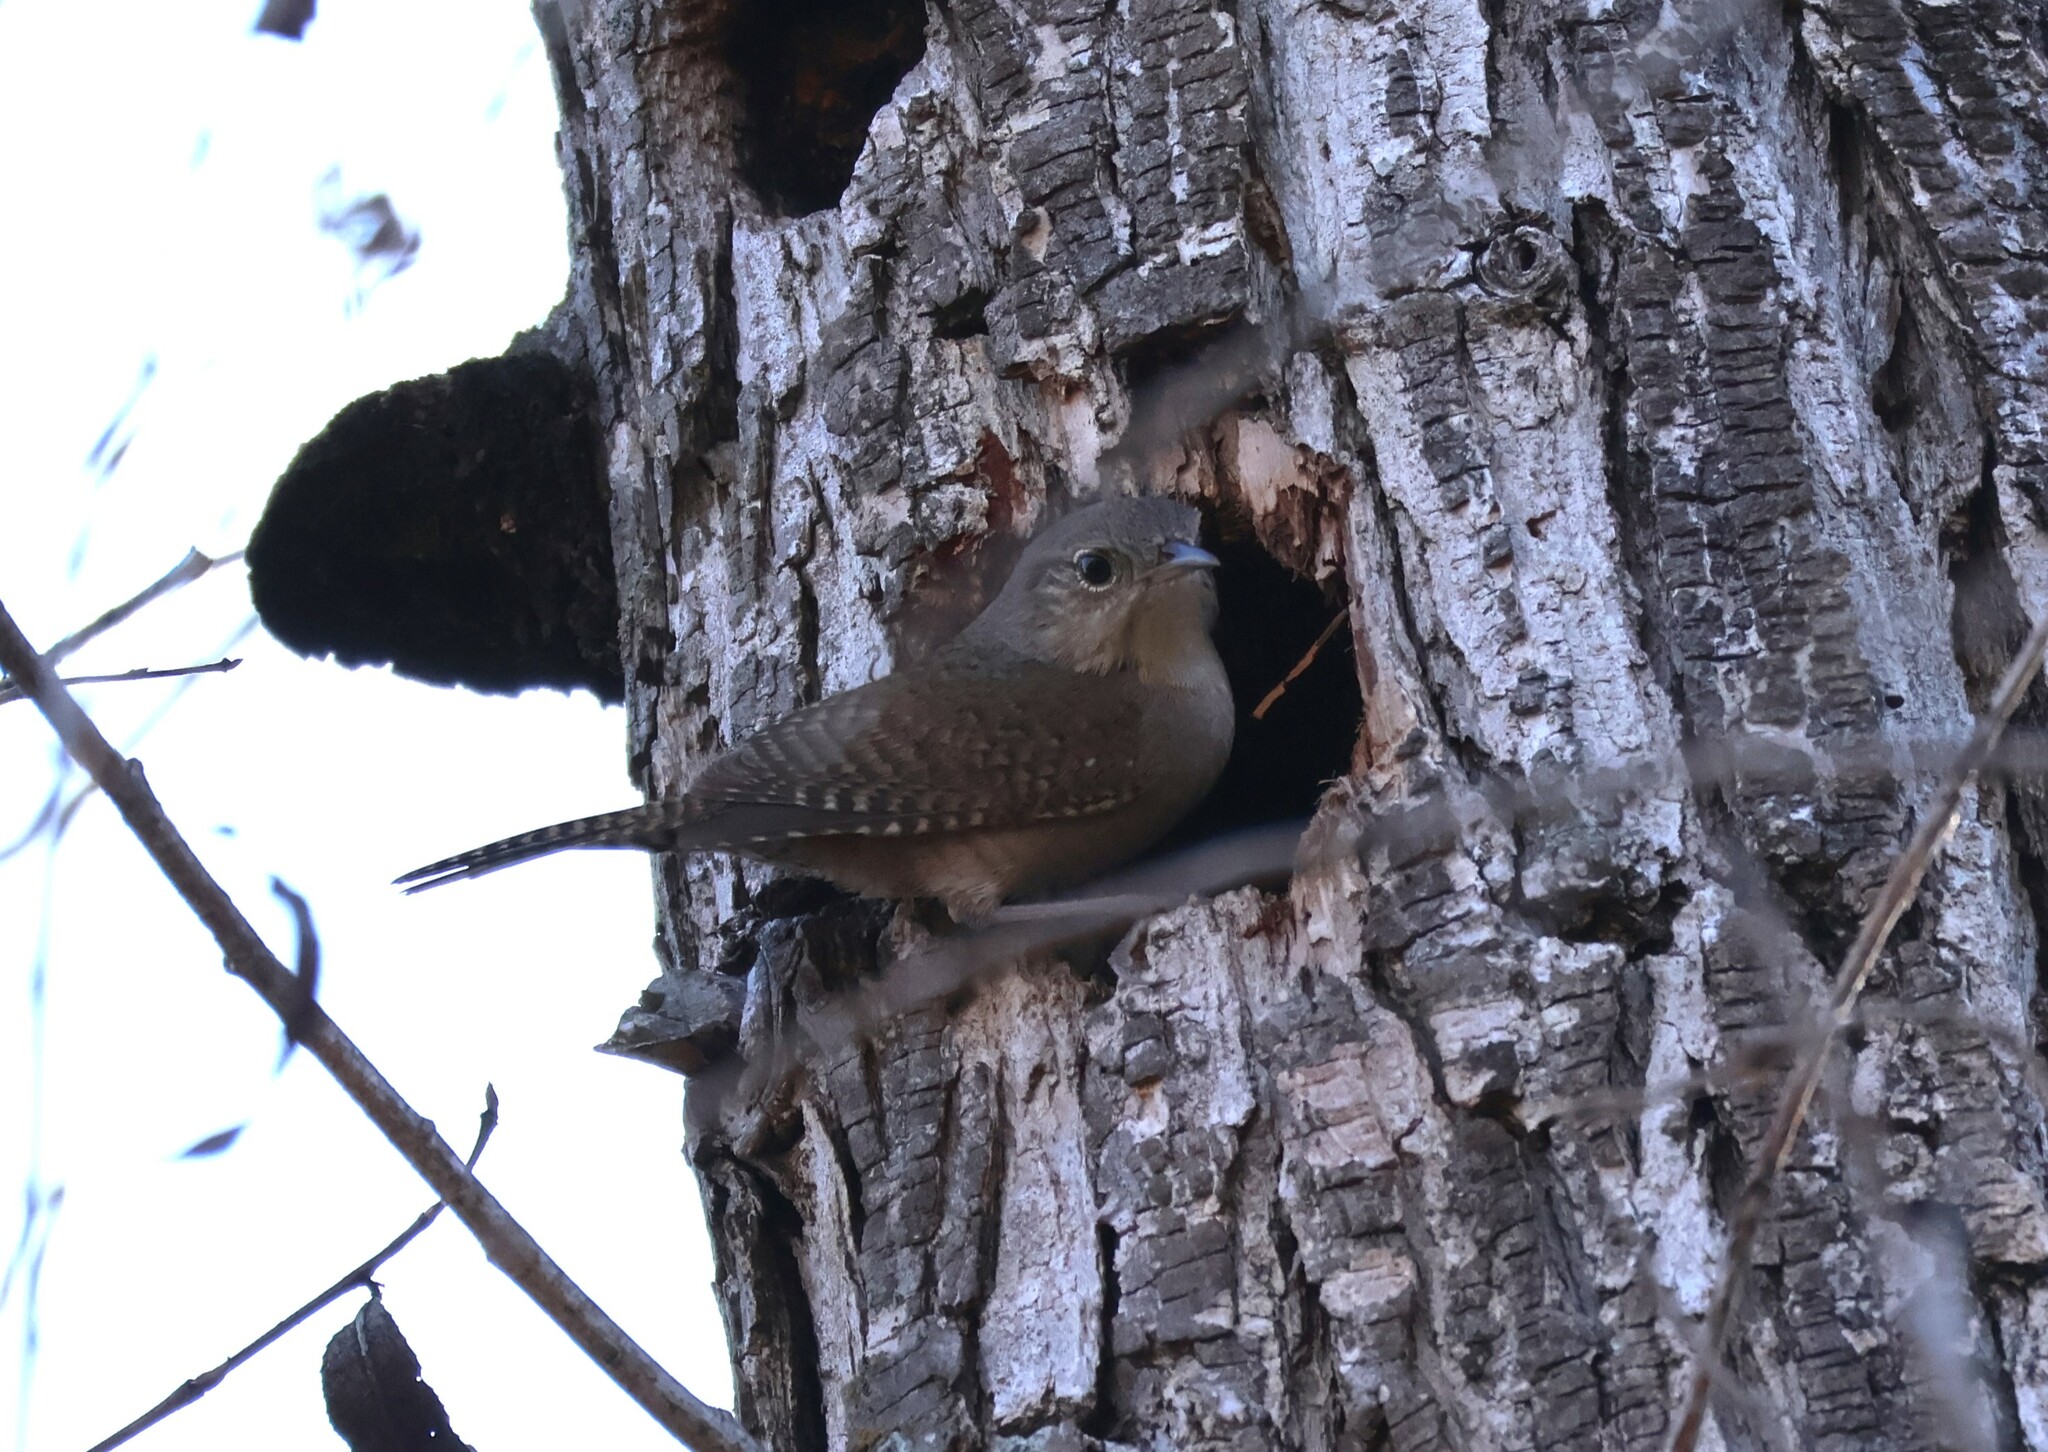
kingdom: Animalia
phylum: Chordata
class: Aves
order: Passeriformes
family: Troglodytidae
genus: Troglodytes
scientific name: Troglodytes aedon
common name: House wren
